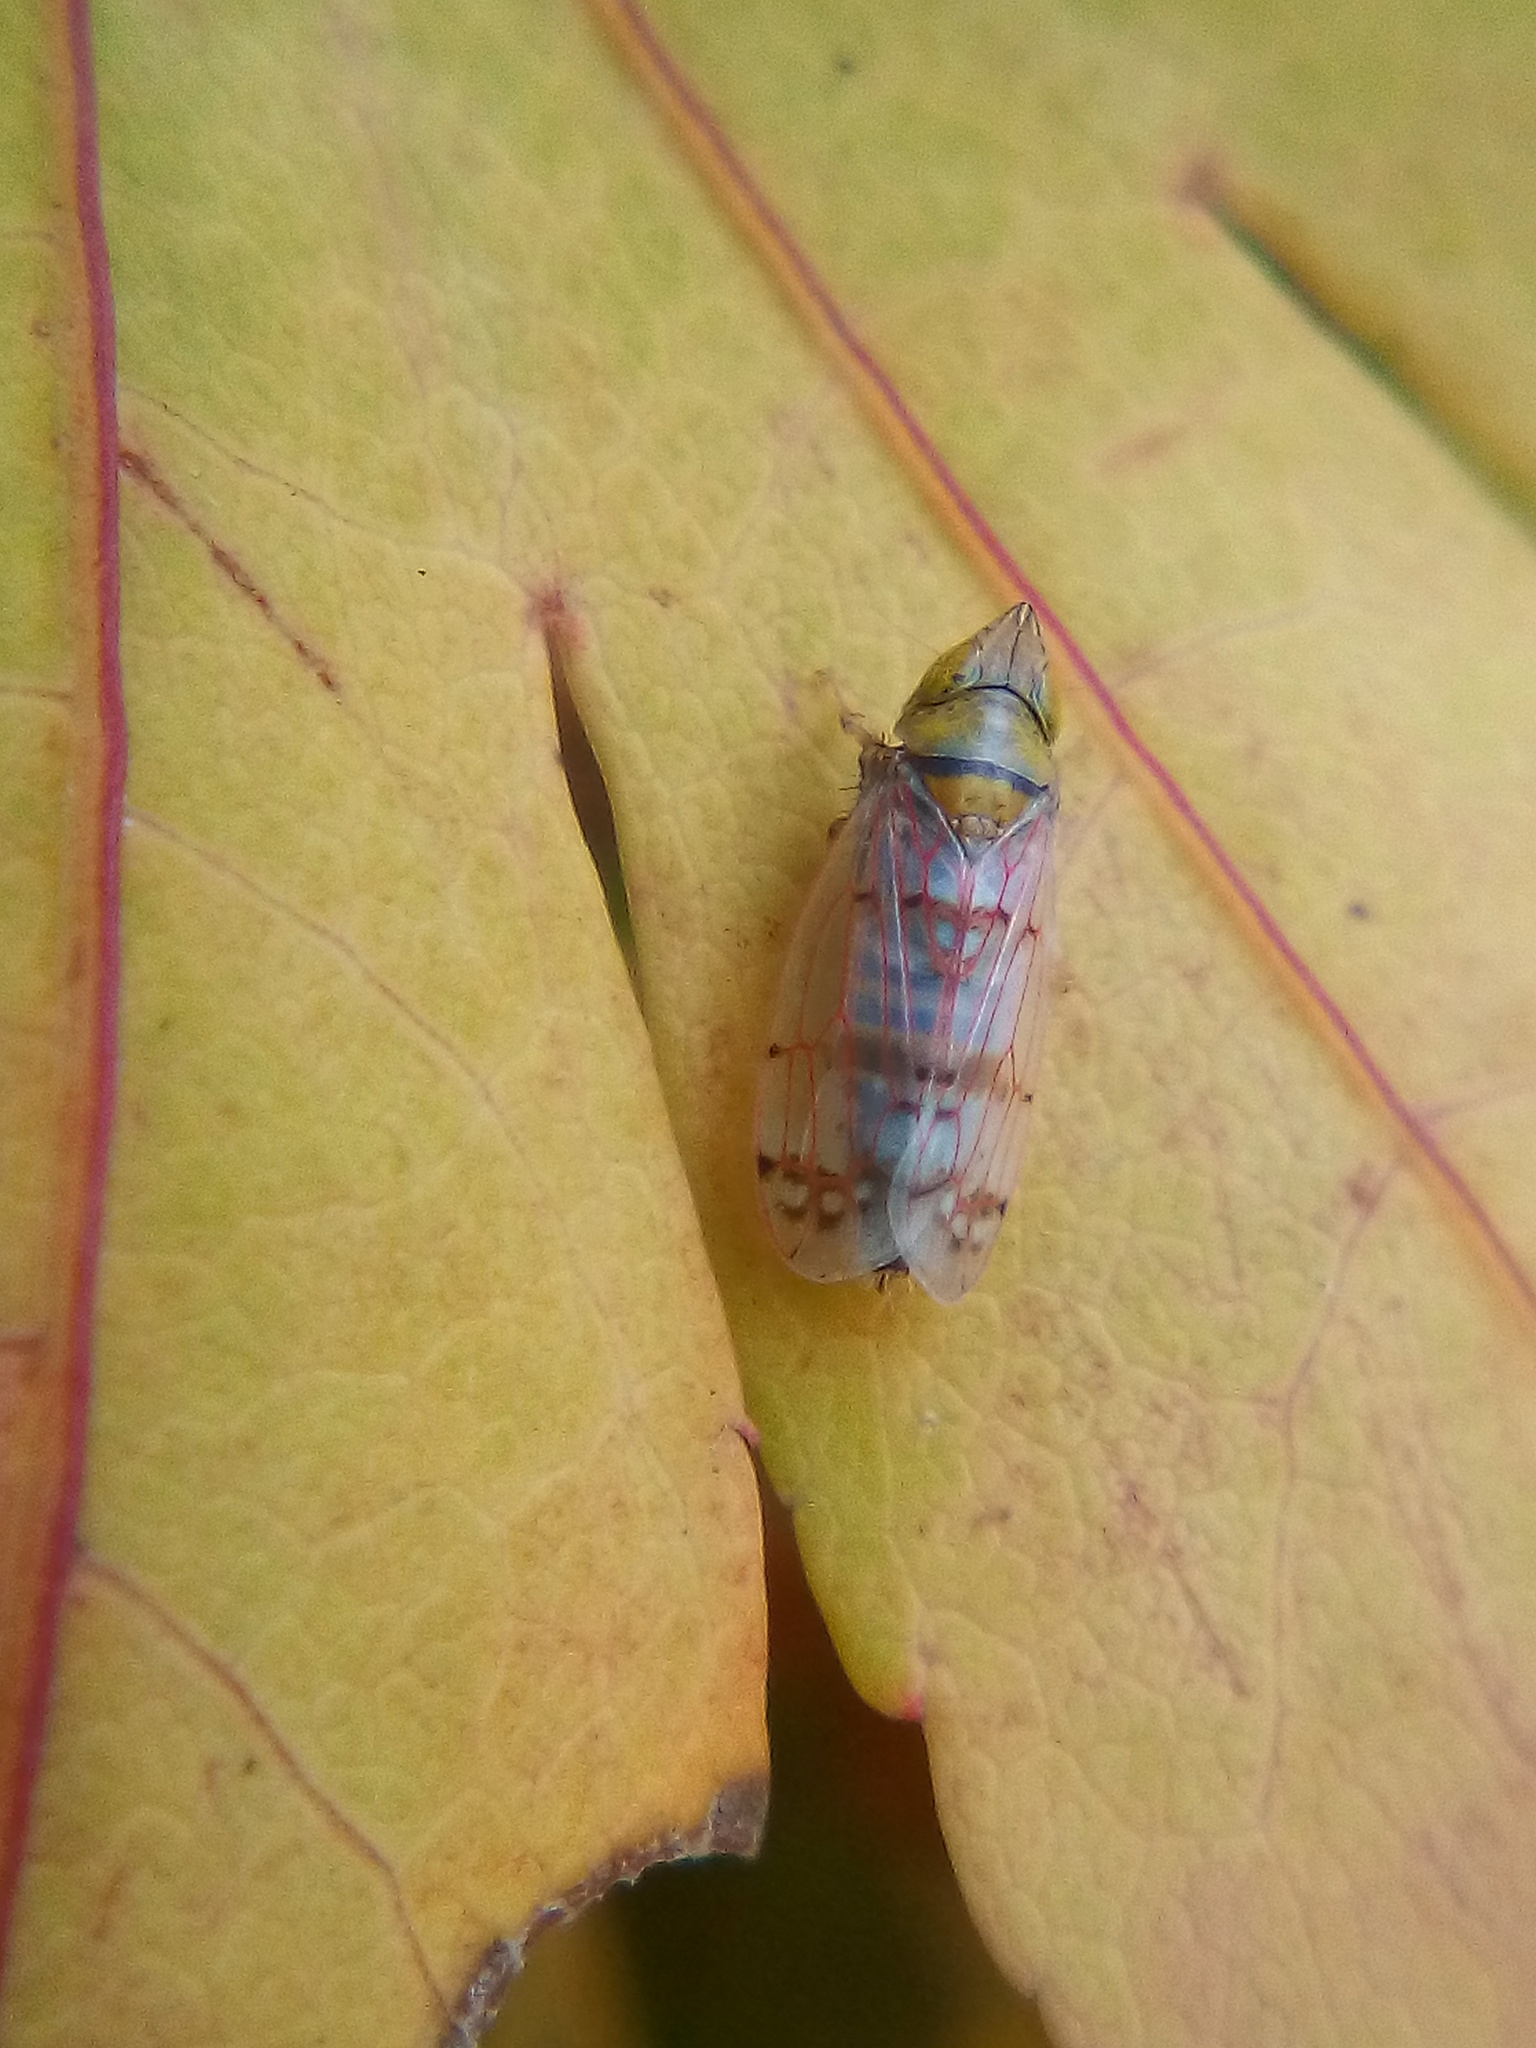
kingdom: Animalia
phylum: Arthropoda
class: Insecta
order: Hemiptera
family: Cicadellidae
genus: Japananus
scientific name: Japananus hyalinus
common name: The japanese maple leafhopper
